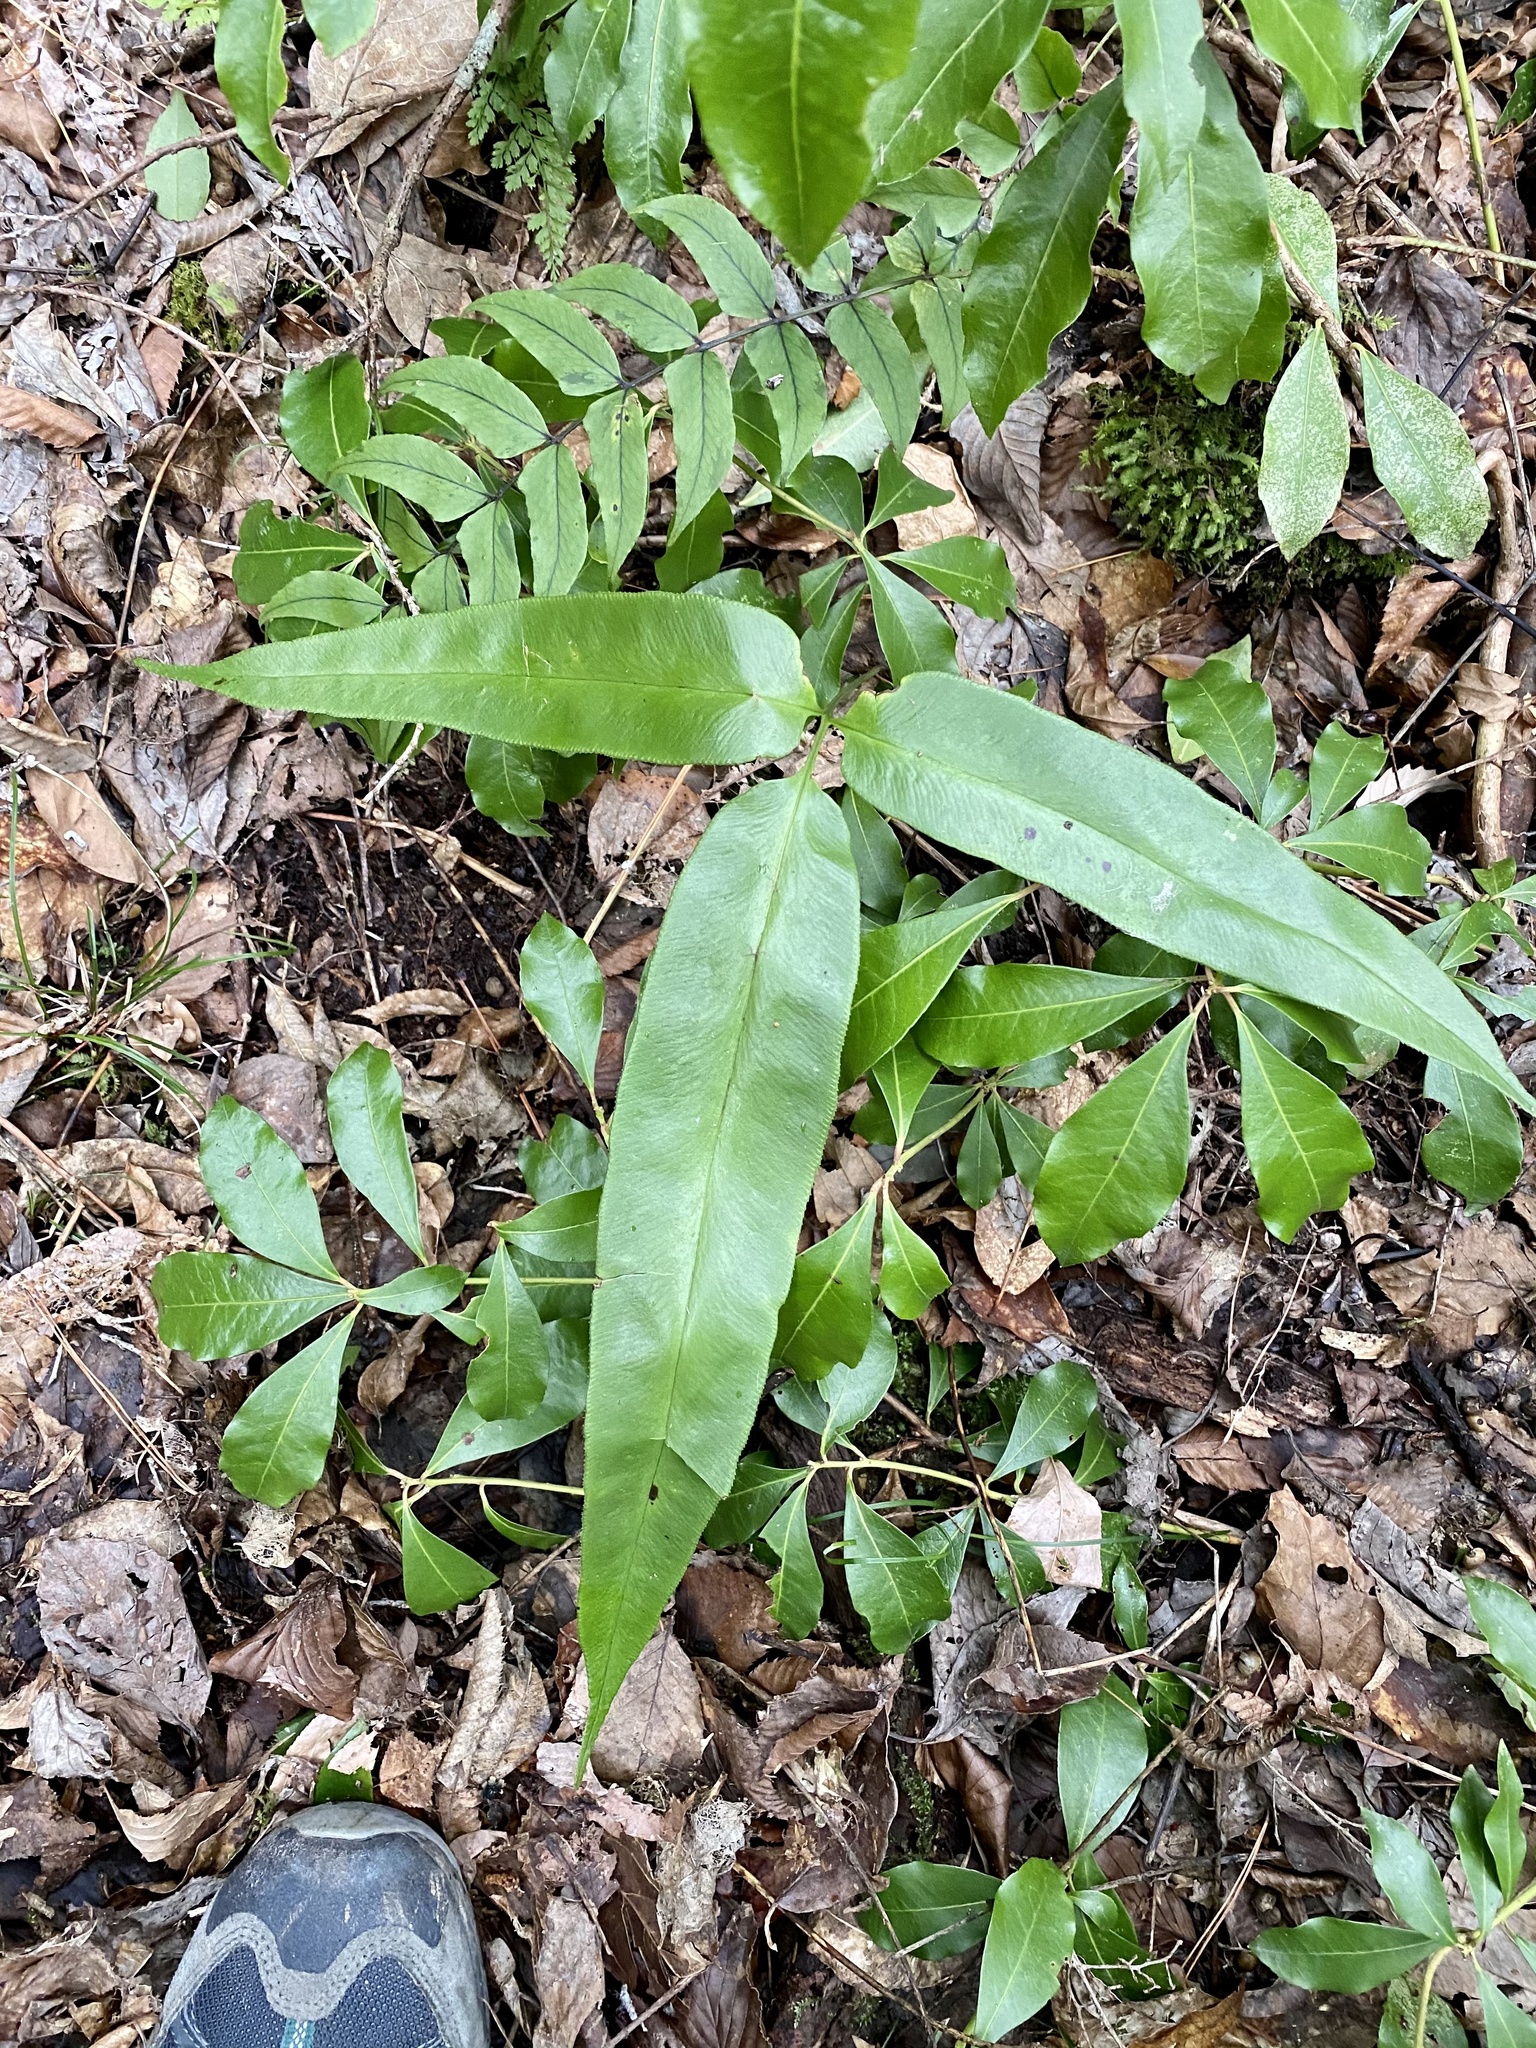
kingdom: Plantae
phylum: Tracheophyta
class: Polypodiopsida
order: Polypodiales
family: Pteridaceae
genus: Coniogramme
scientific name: Coniogramme japonica
